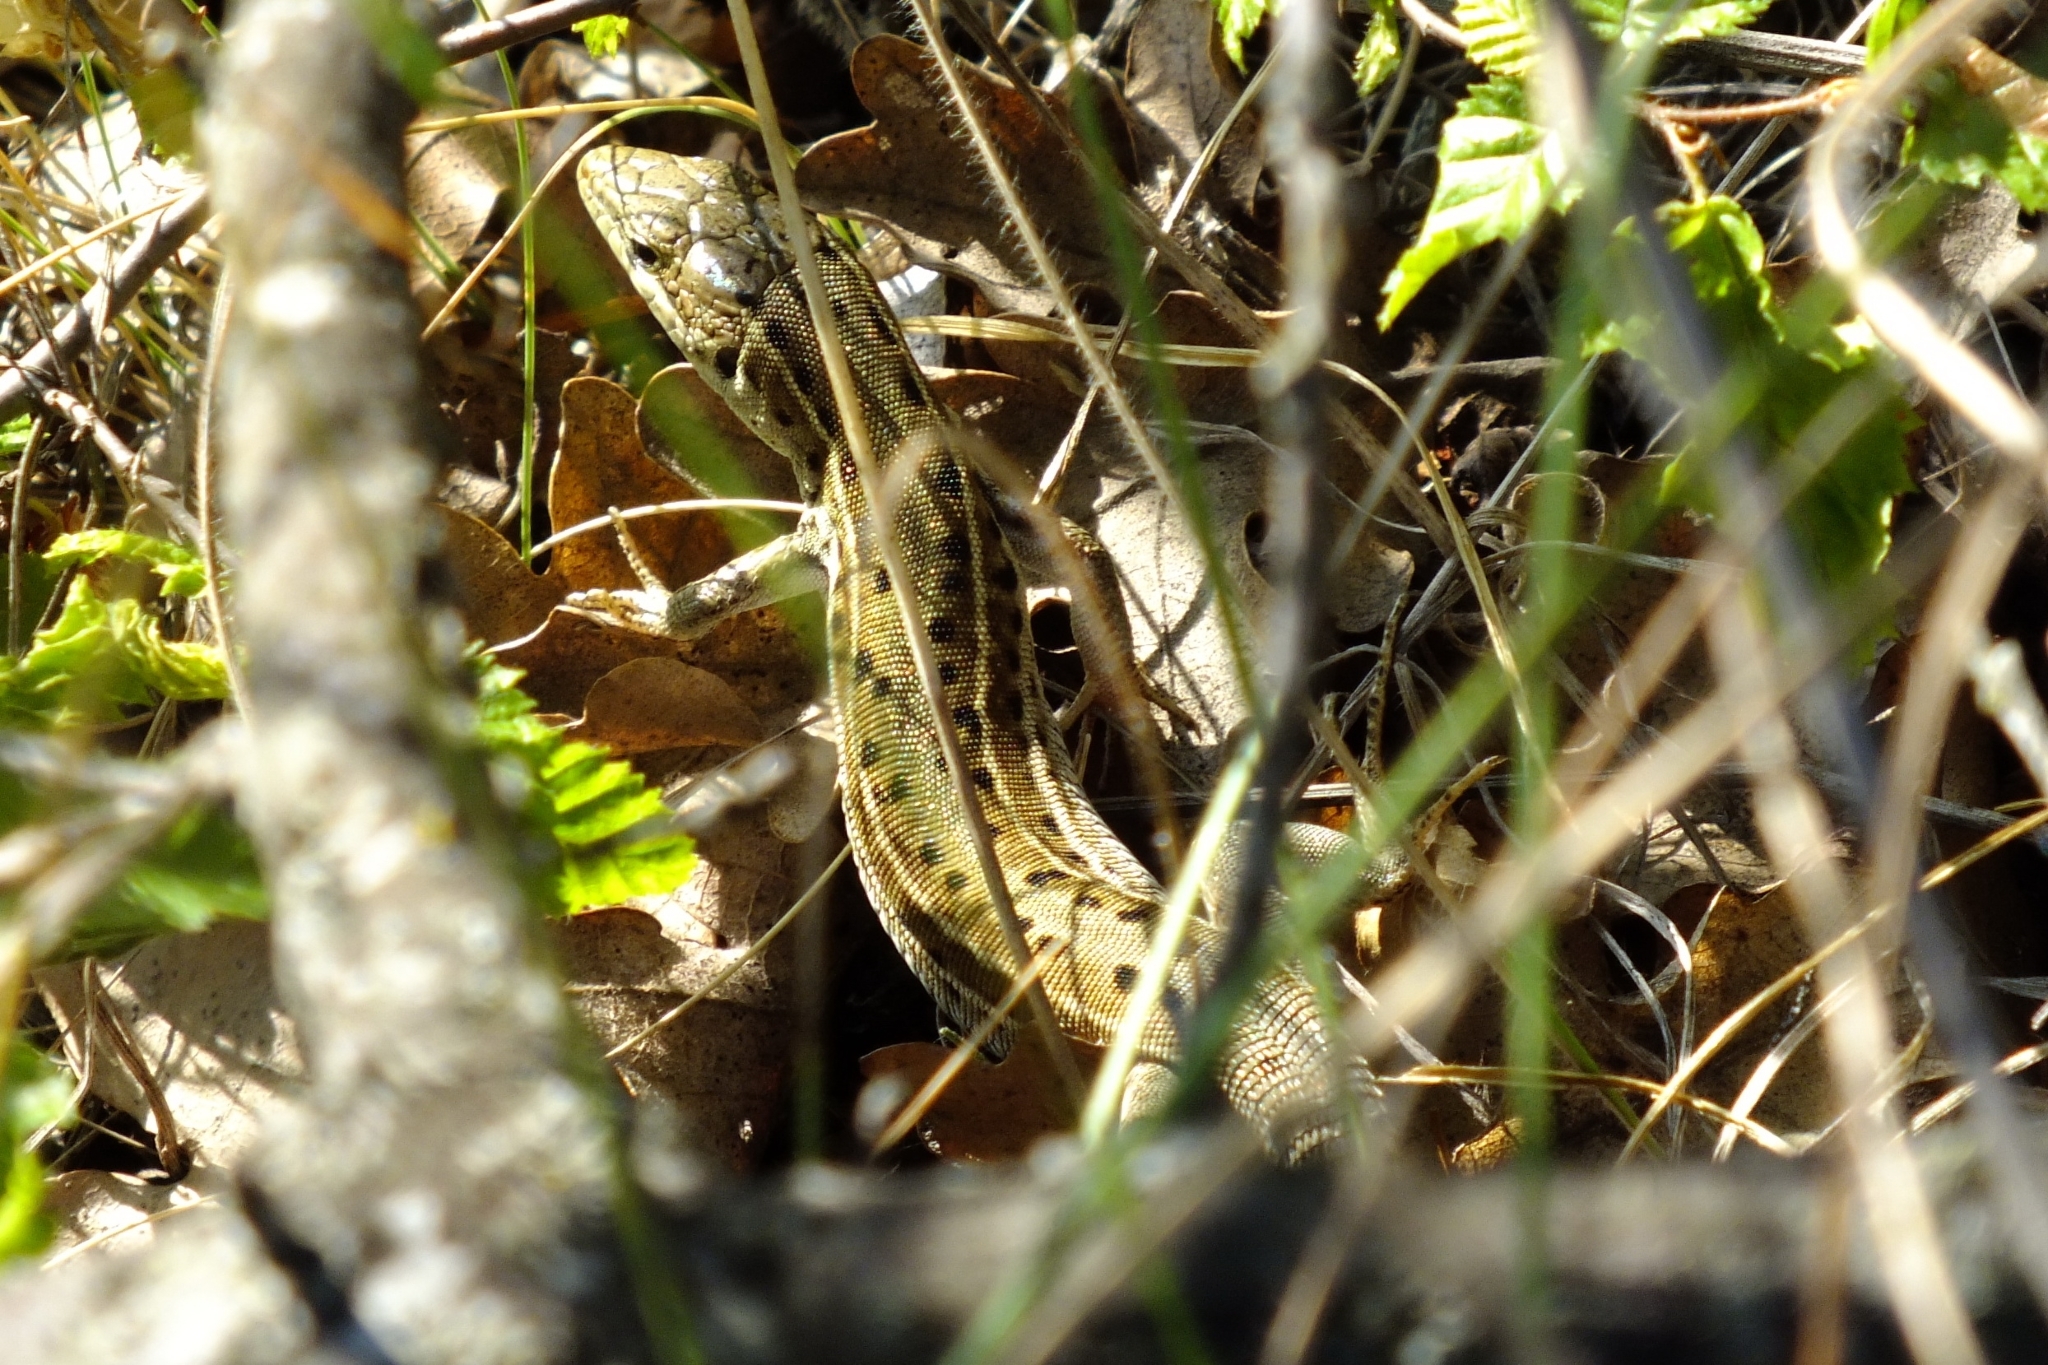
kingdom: Animalia
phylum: Chordata
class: Squamata
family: Lacertidae
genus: Podarcis
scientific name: Podarcis tauricus
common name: Balkan wall lizard
